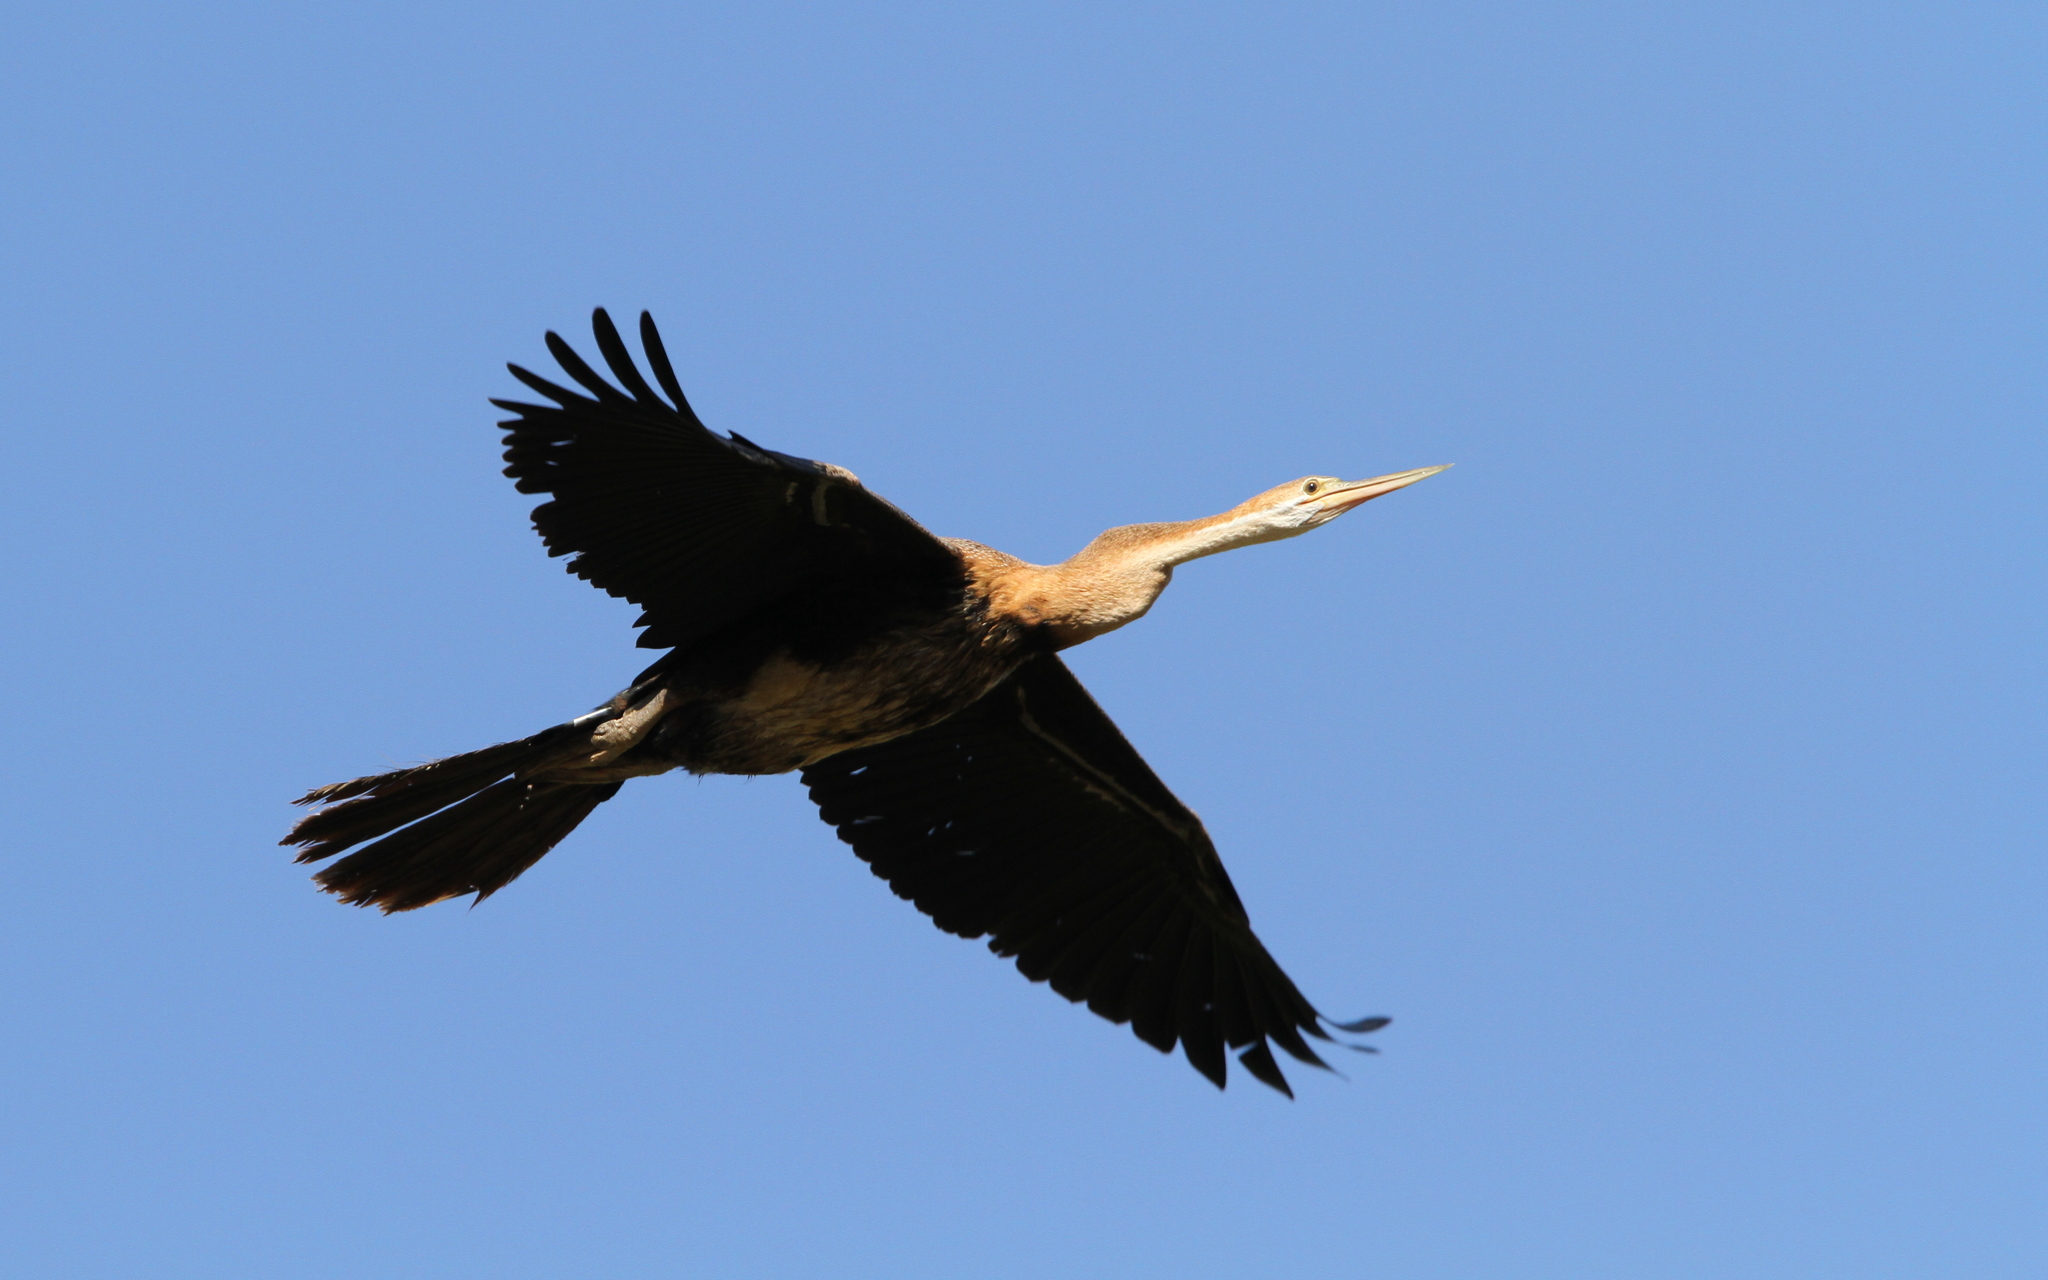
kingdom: Animalia
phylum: Chordata
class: Aves
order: Suliformes
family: Anhingidae
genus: Anhinga
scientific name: Anhinga rufa
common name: African darter
